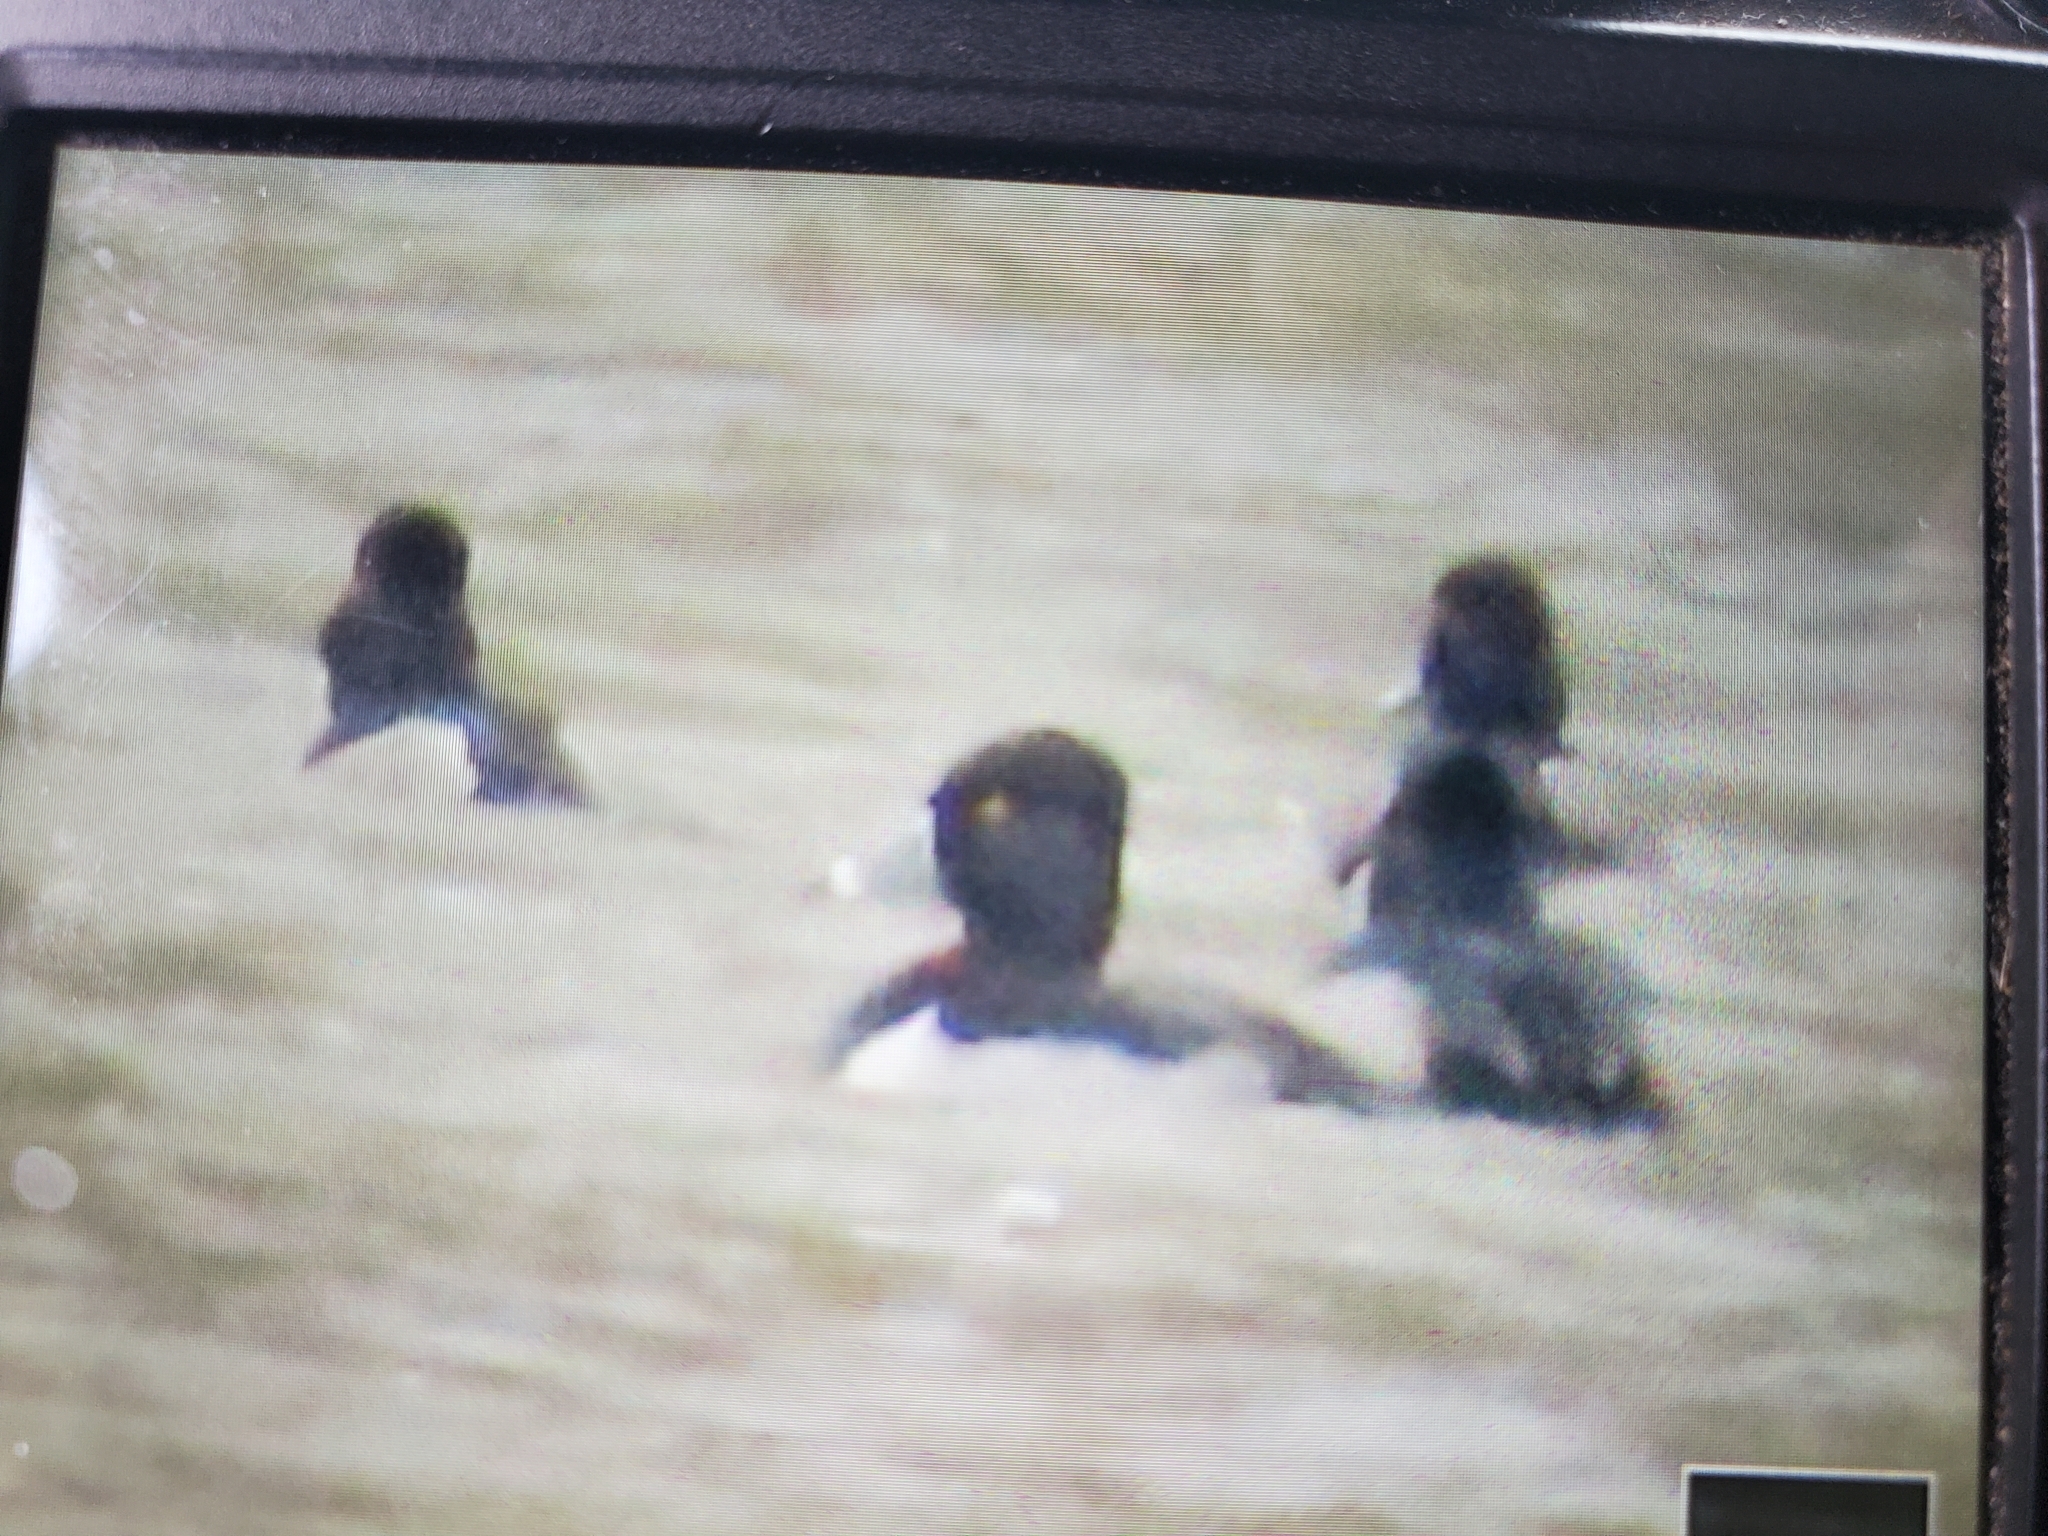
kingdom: Animalia
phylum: Chordata
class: Aves
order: Anseriformes
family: Anatidae
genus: Aythya
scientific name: Aythya collaris
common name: Ring-necked duck
